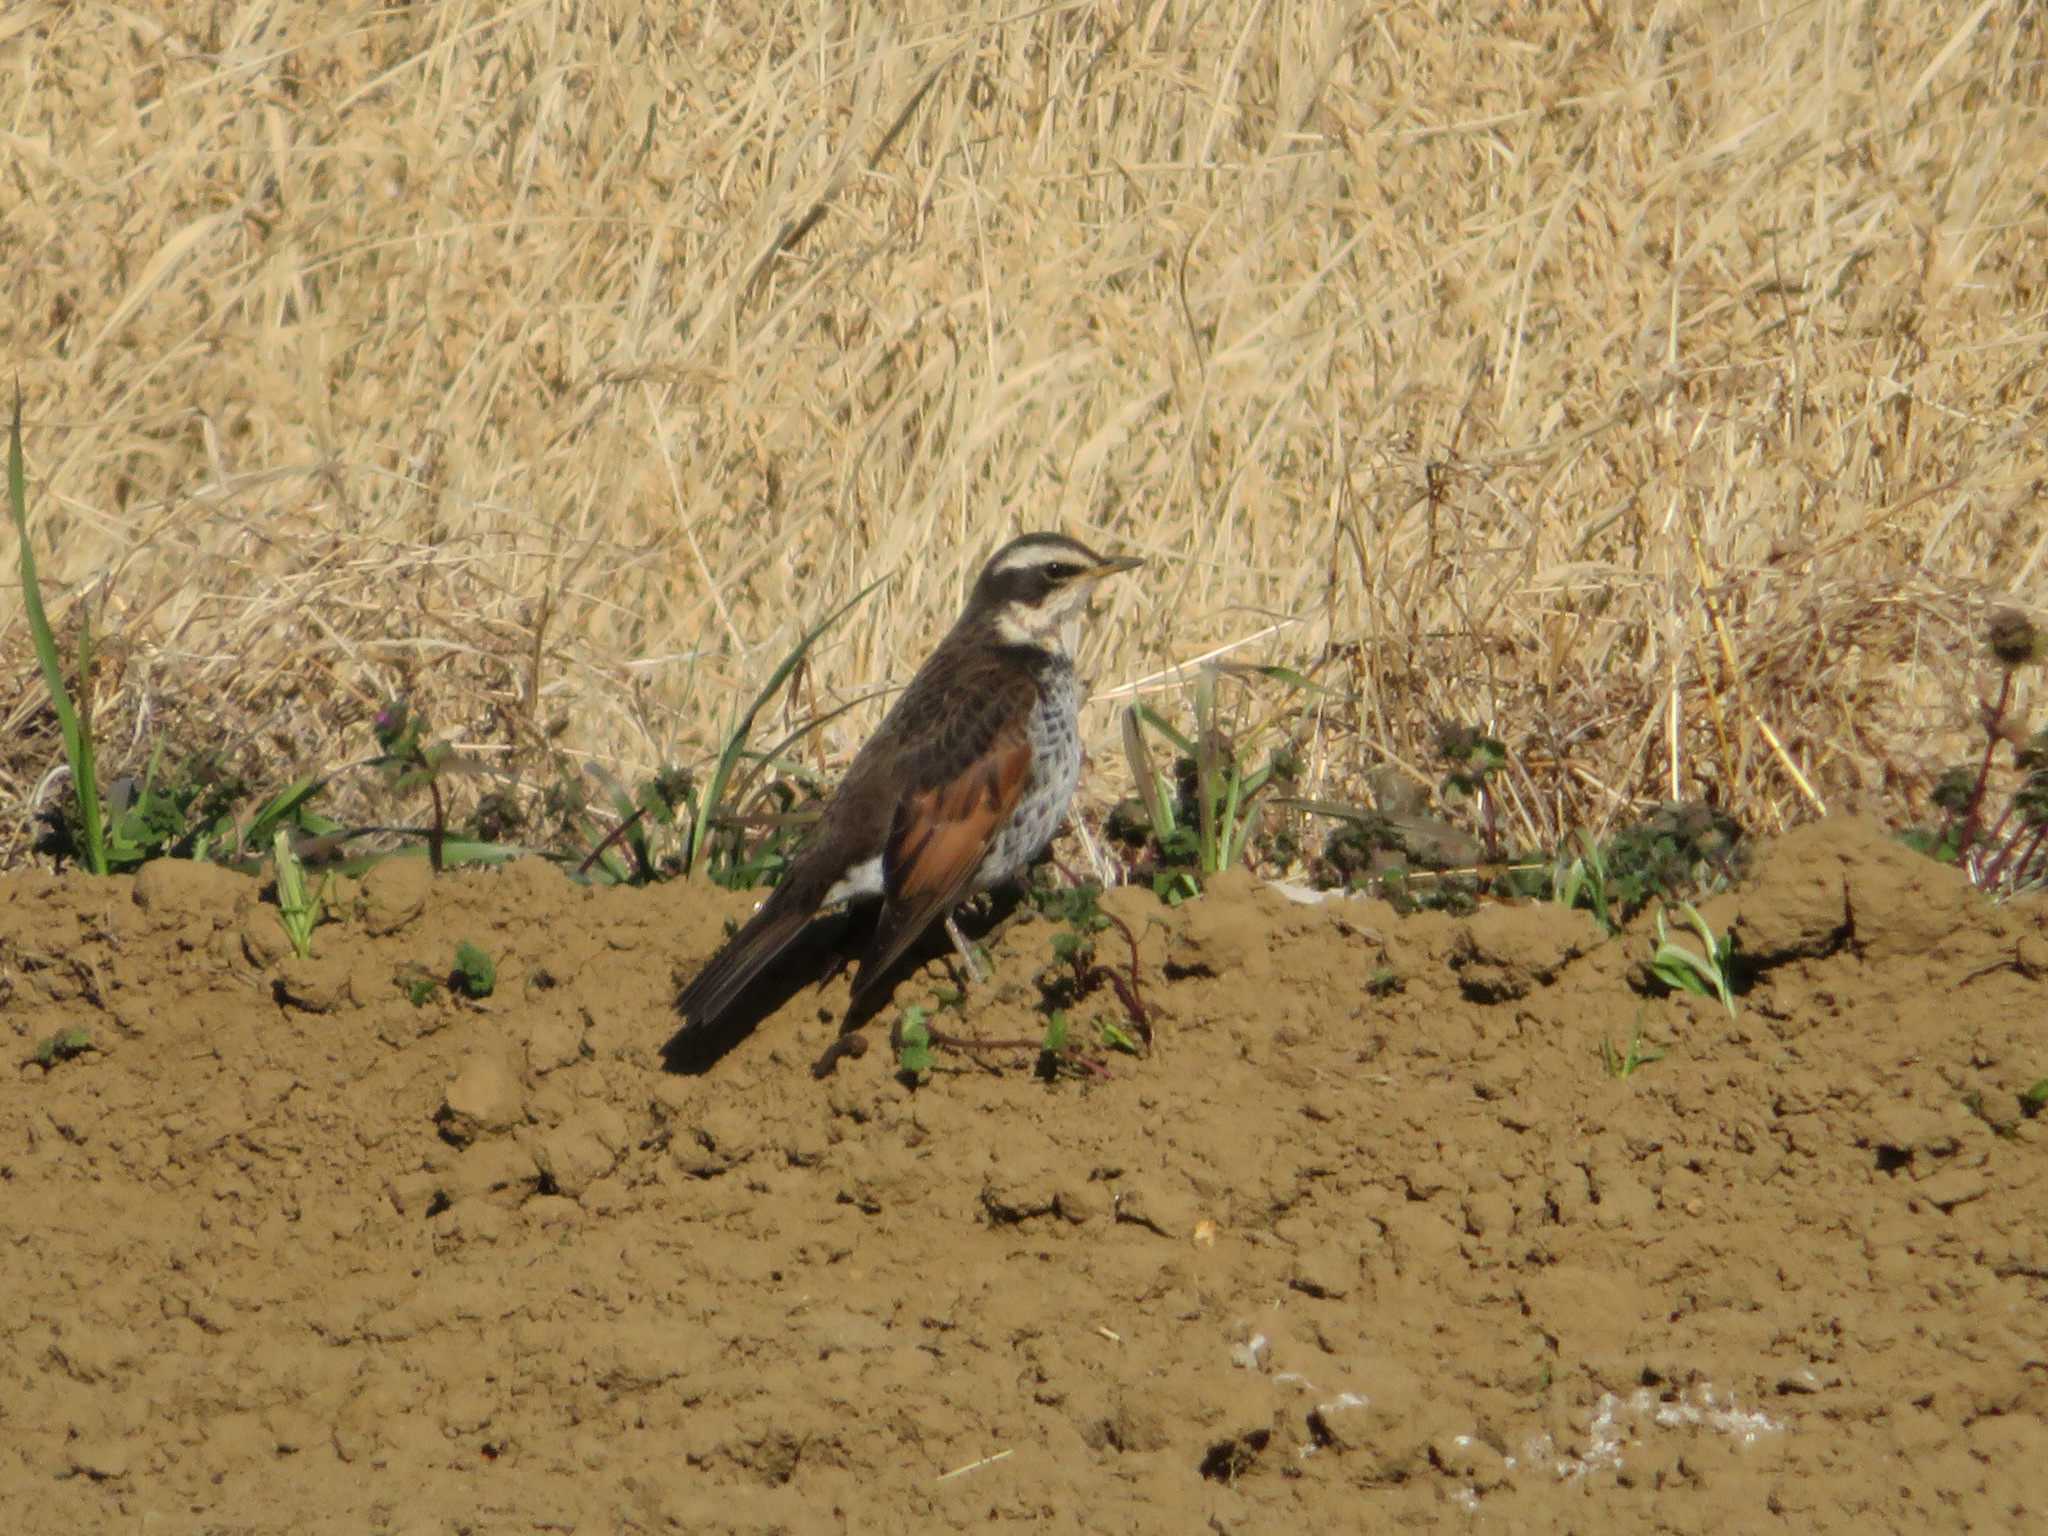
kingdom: Animalia
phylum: Chordata
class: Aves
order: Passeriformes
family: Turdidae
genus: Turdus
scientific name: Turdus eunomus
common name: Dusky thrush
